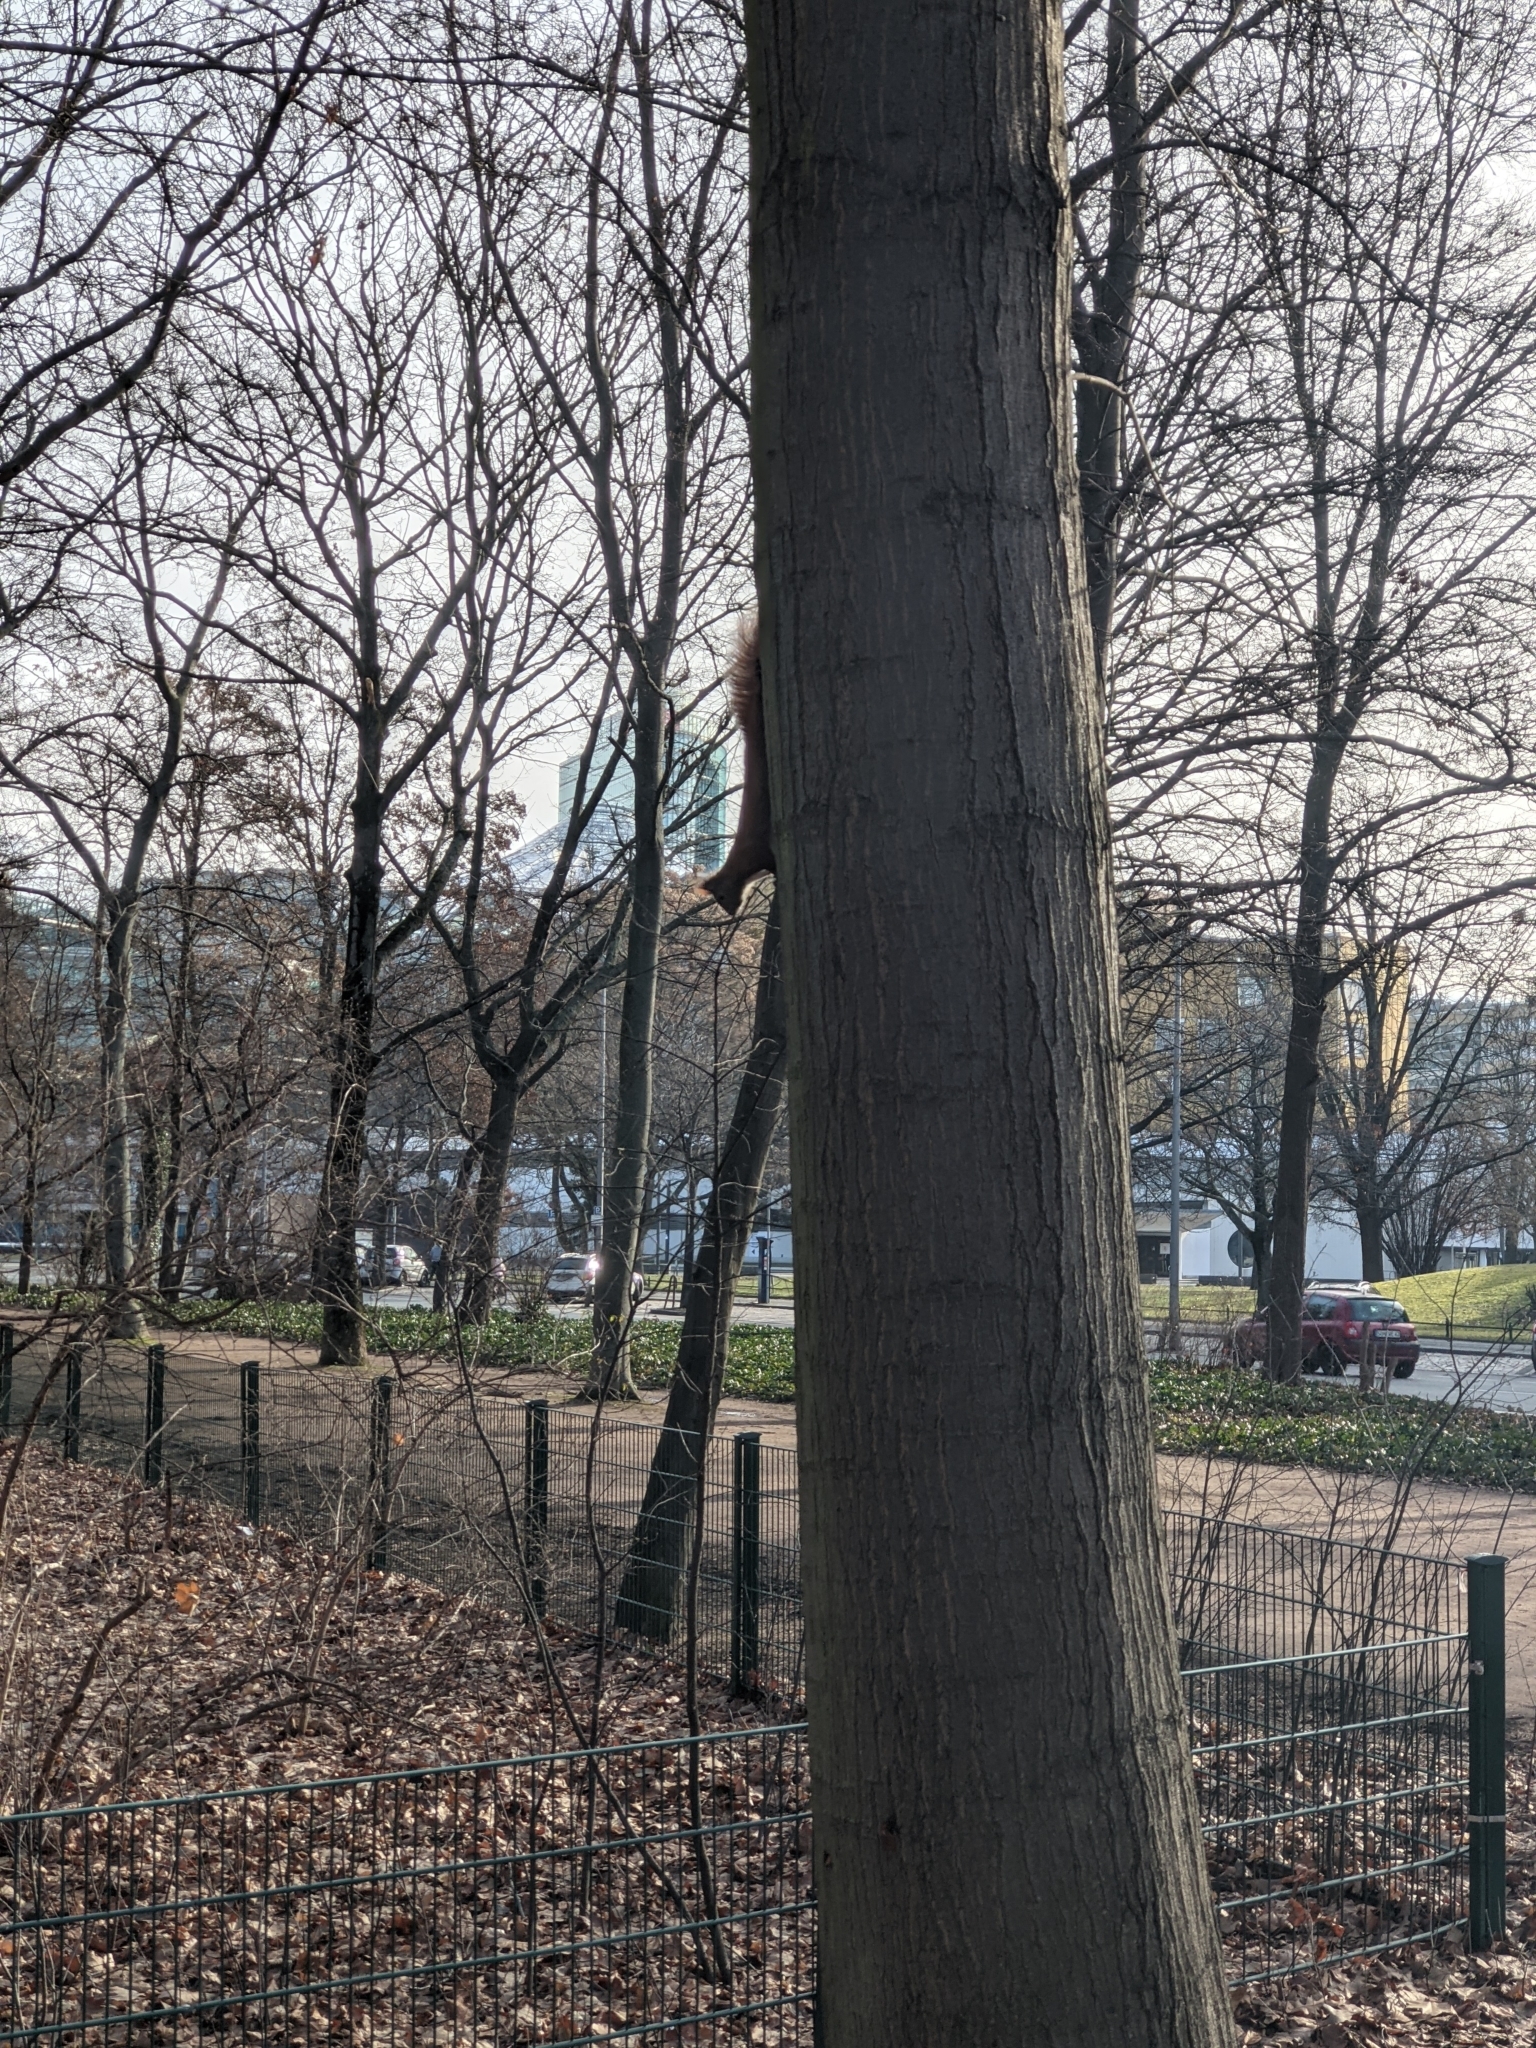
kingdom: Animalia
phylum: Chordata
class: Mammalia
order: Rodentia
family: Sciuridae
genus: Sciurus
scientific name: Sciurus vulgaris
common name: Eurasian red squirrel
